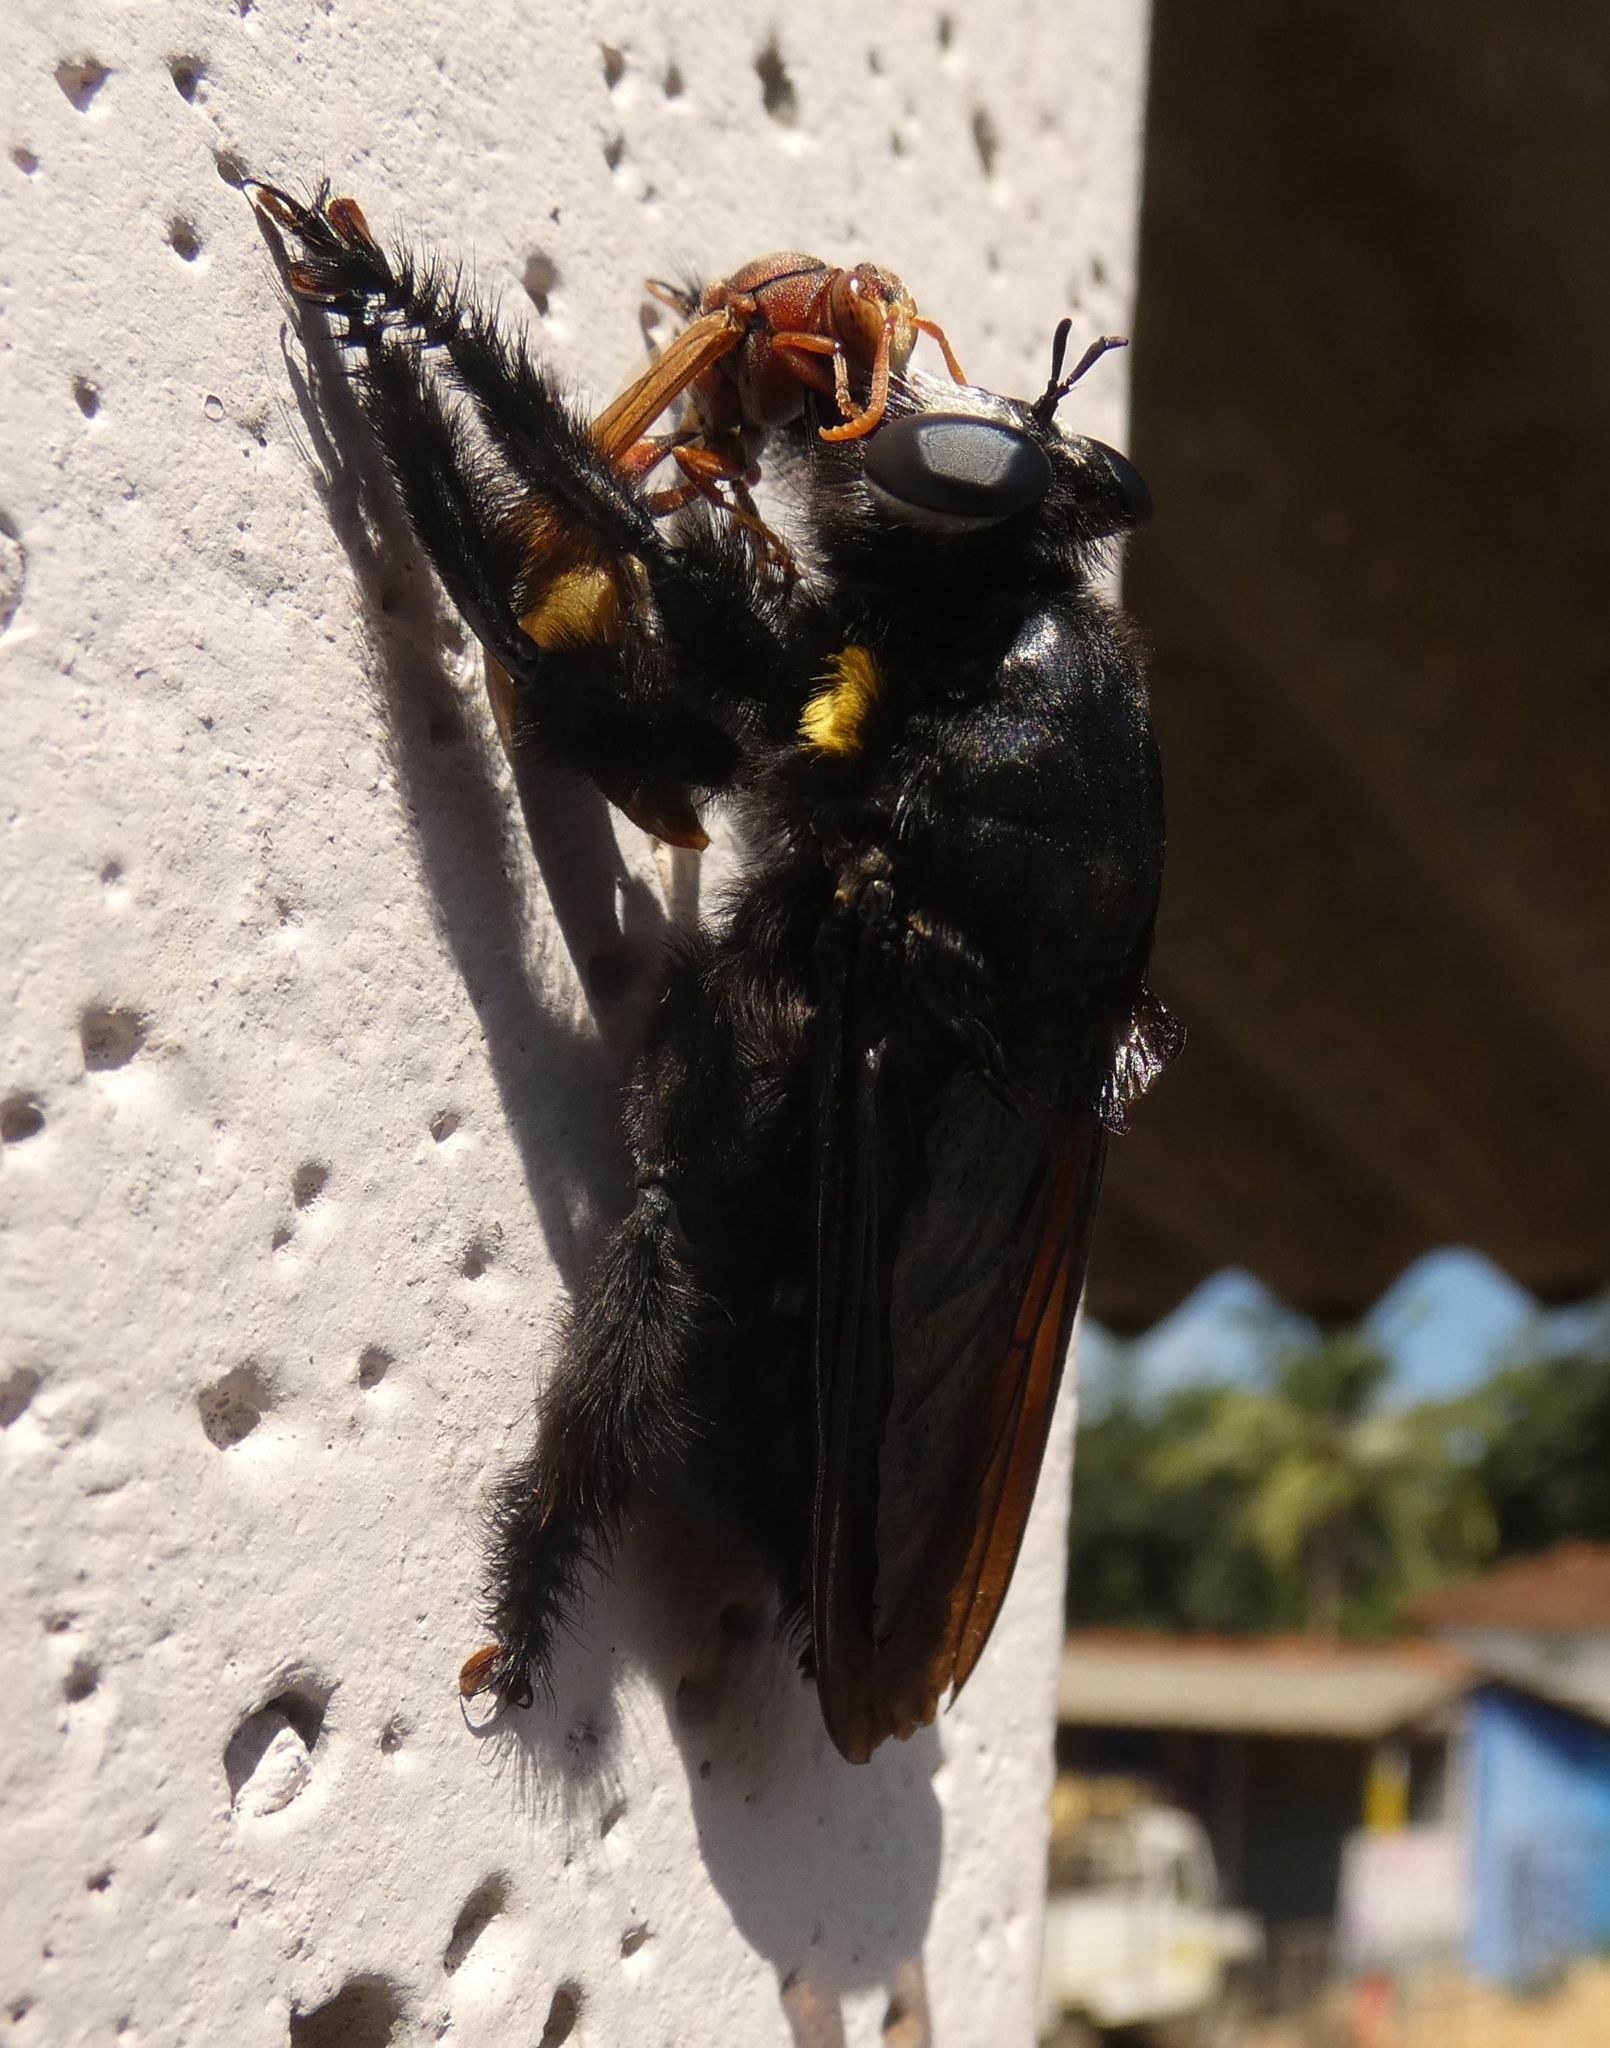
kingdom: Animalia
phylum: Arthropoda
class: Insecta
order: Diptera
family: Asilidae
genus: Hyperechia
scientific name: Hyperechia xylocopiformis
